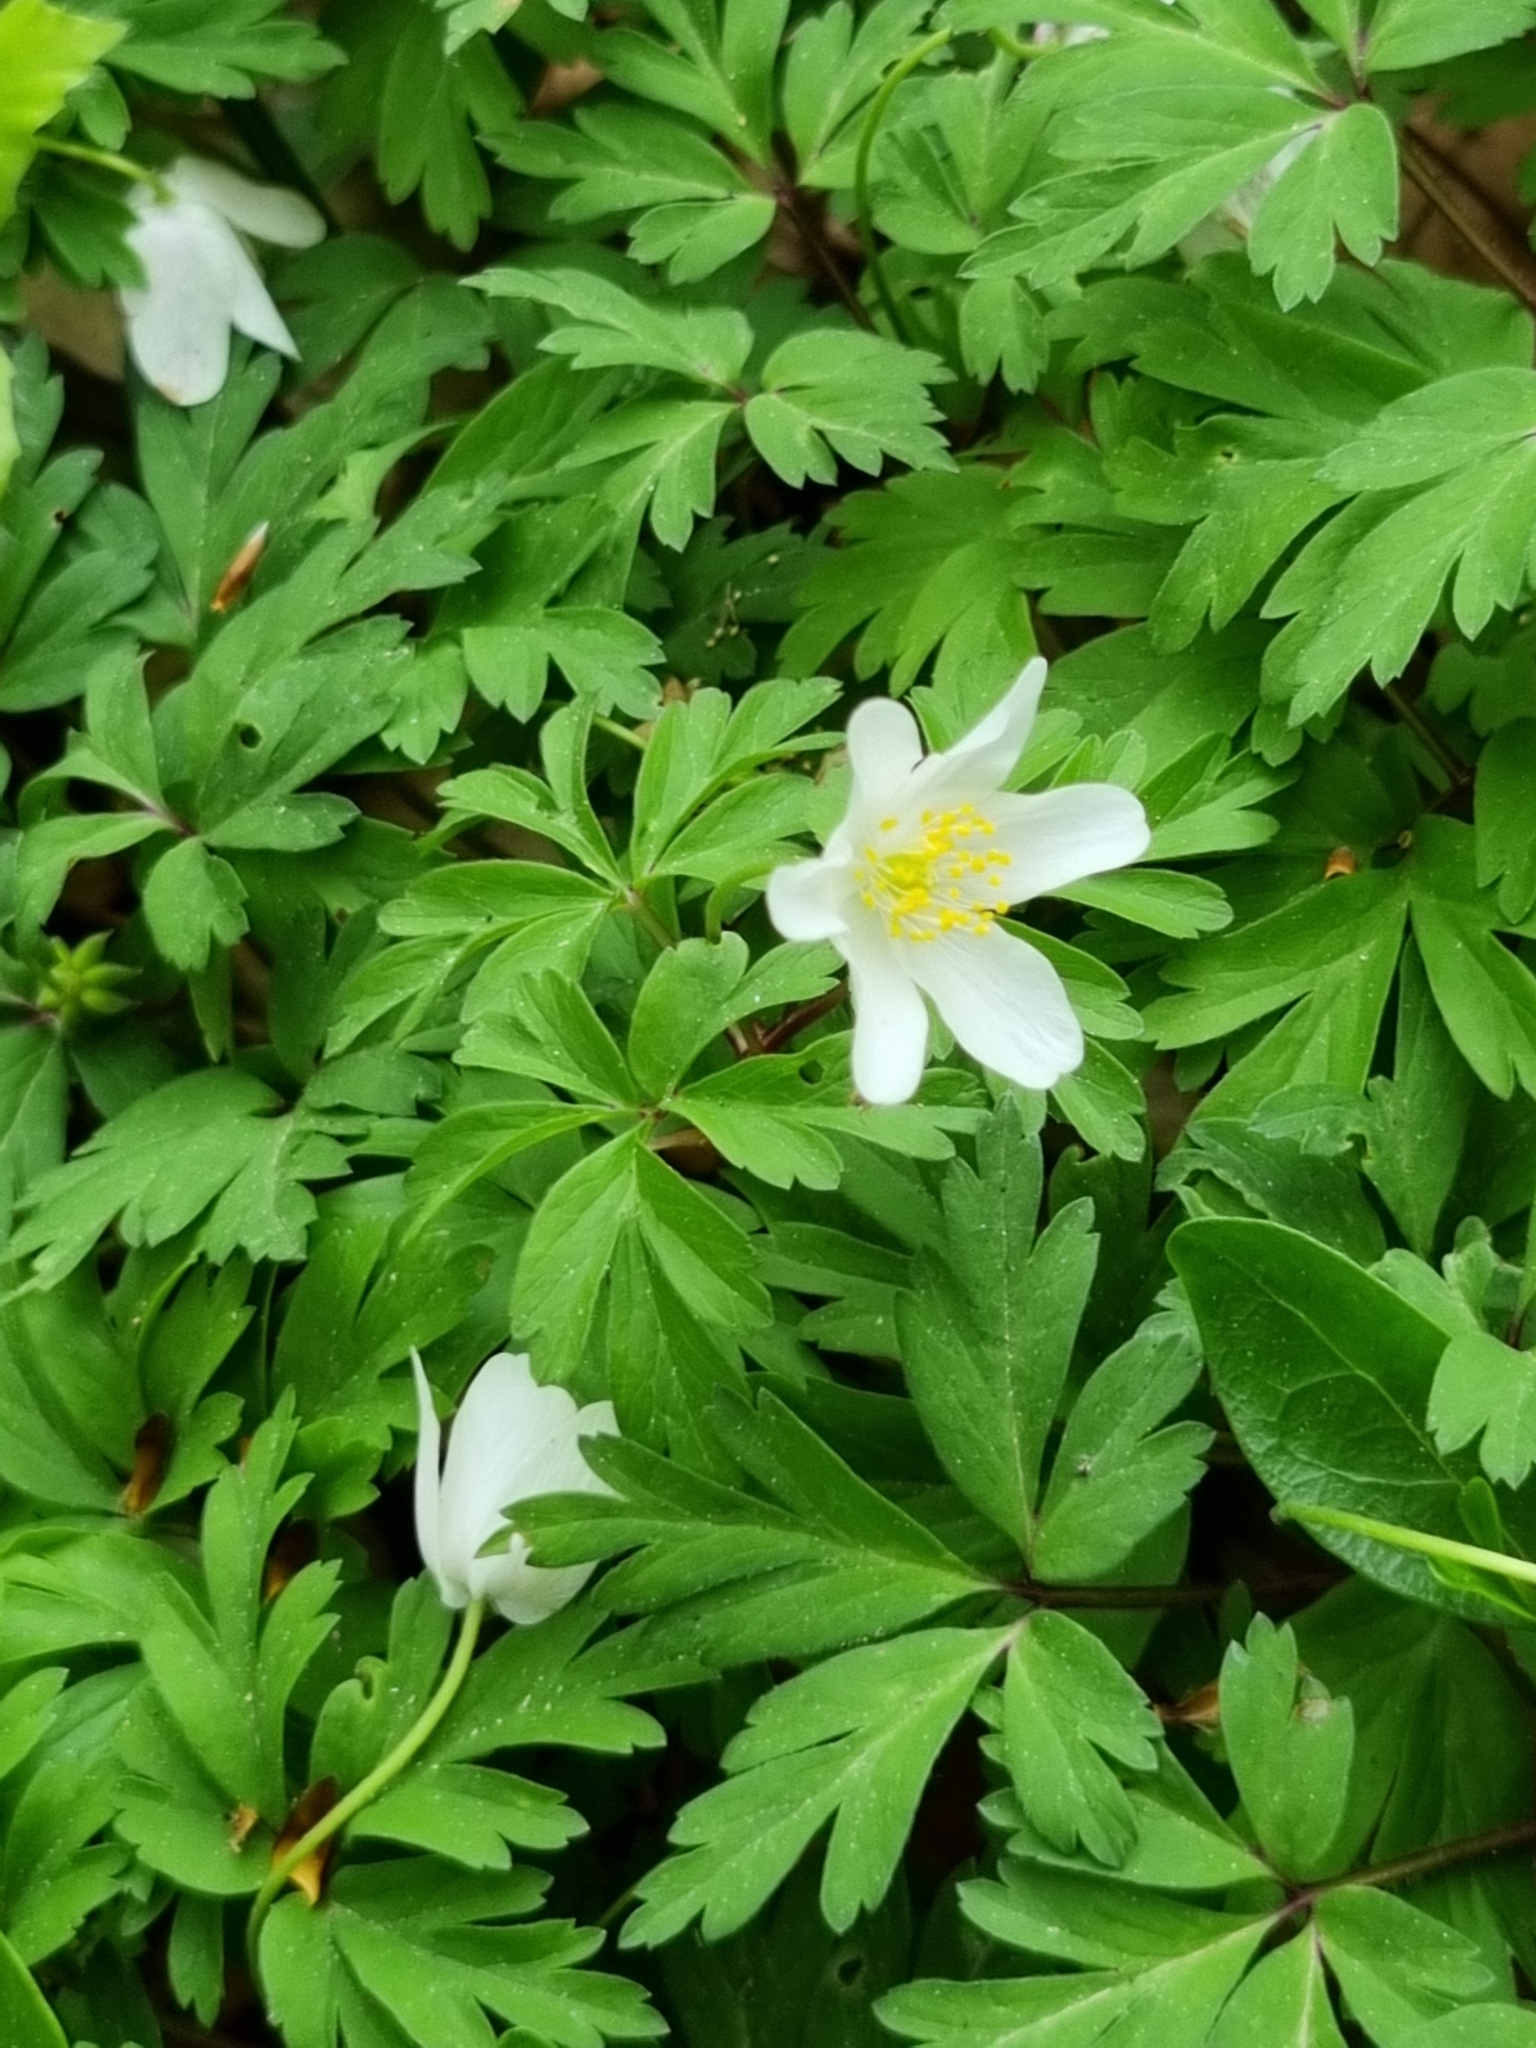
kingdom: Plantae
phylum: Tracheophyta
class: Magnoliopsida
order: Ranunculales
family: Ranunculaceae
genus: Anemone
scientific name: Anemone nemorosa
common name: Wood anemone
